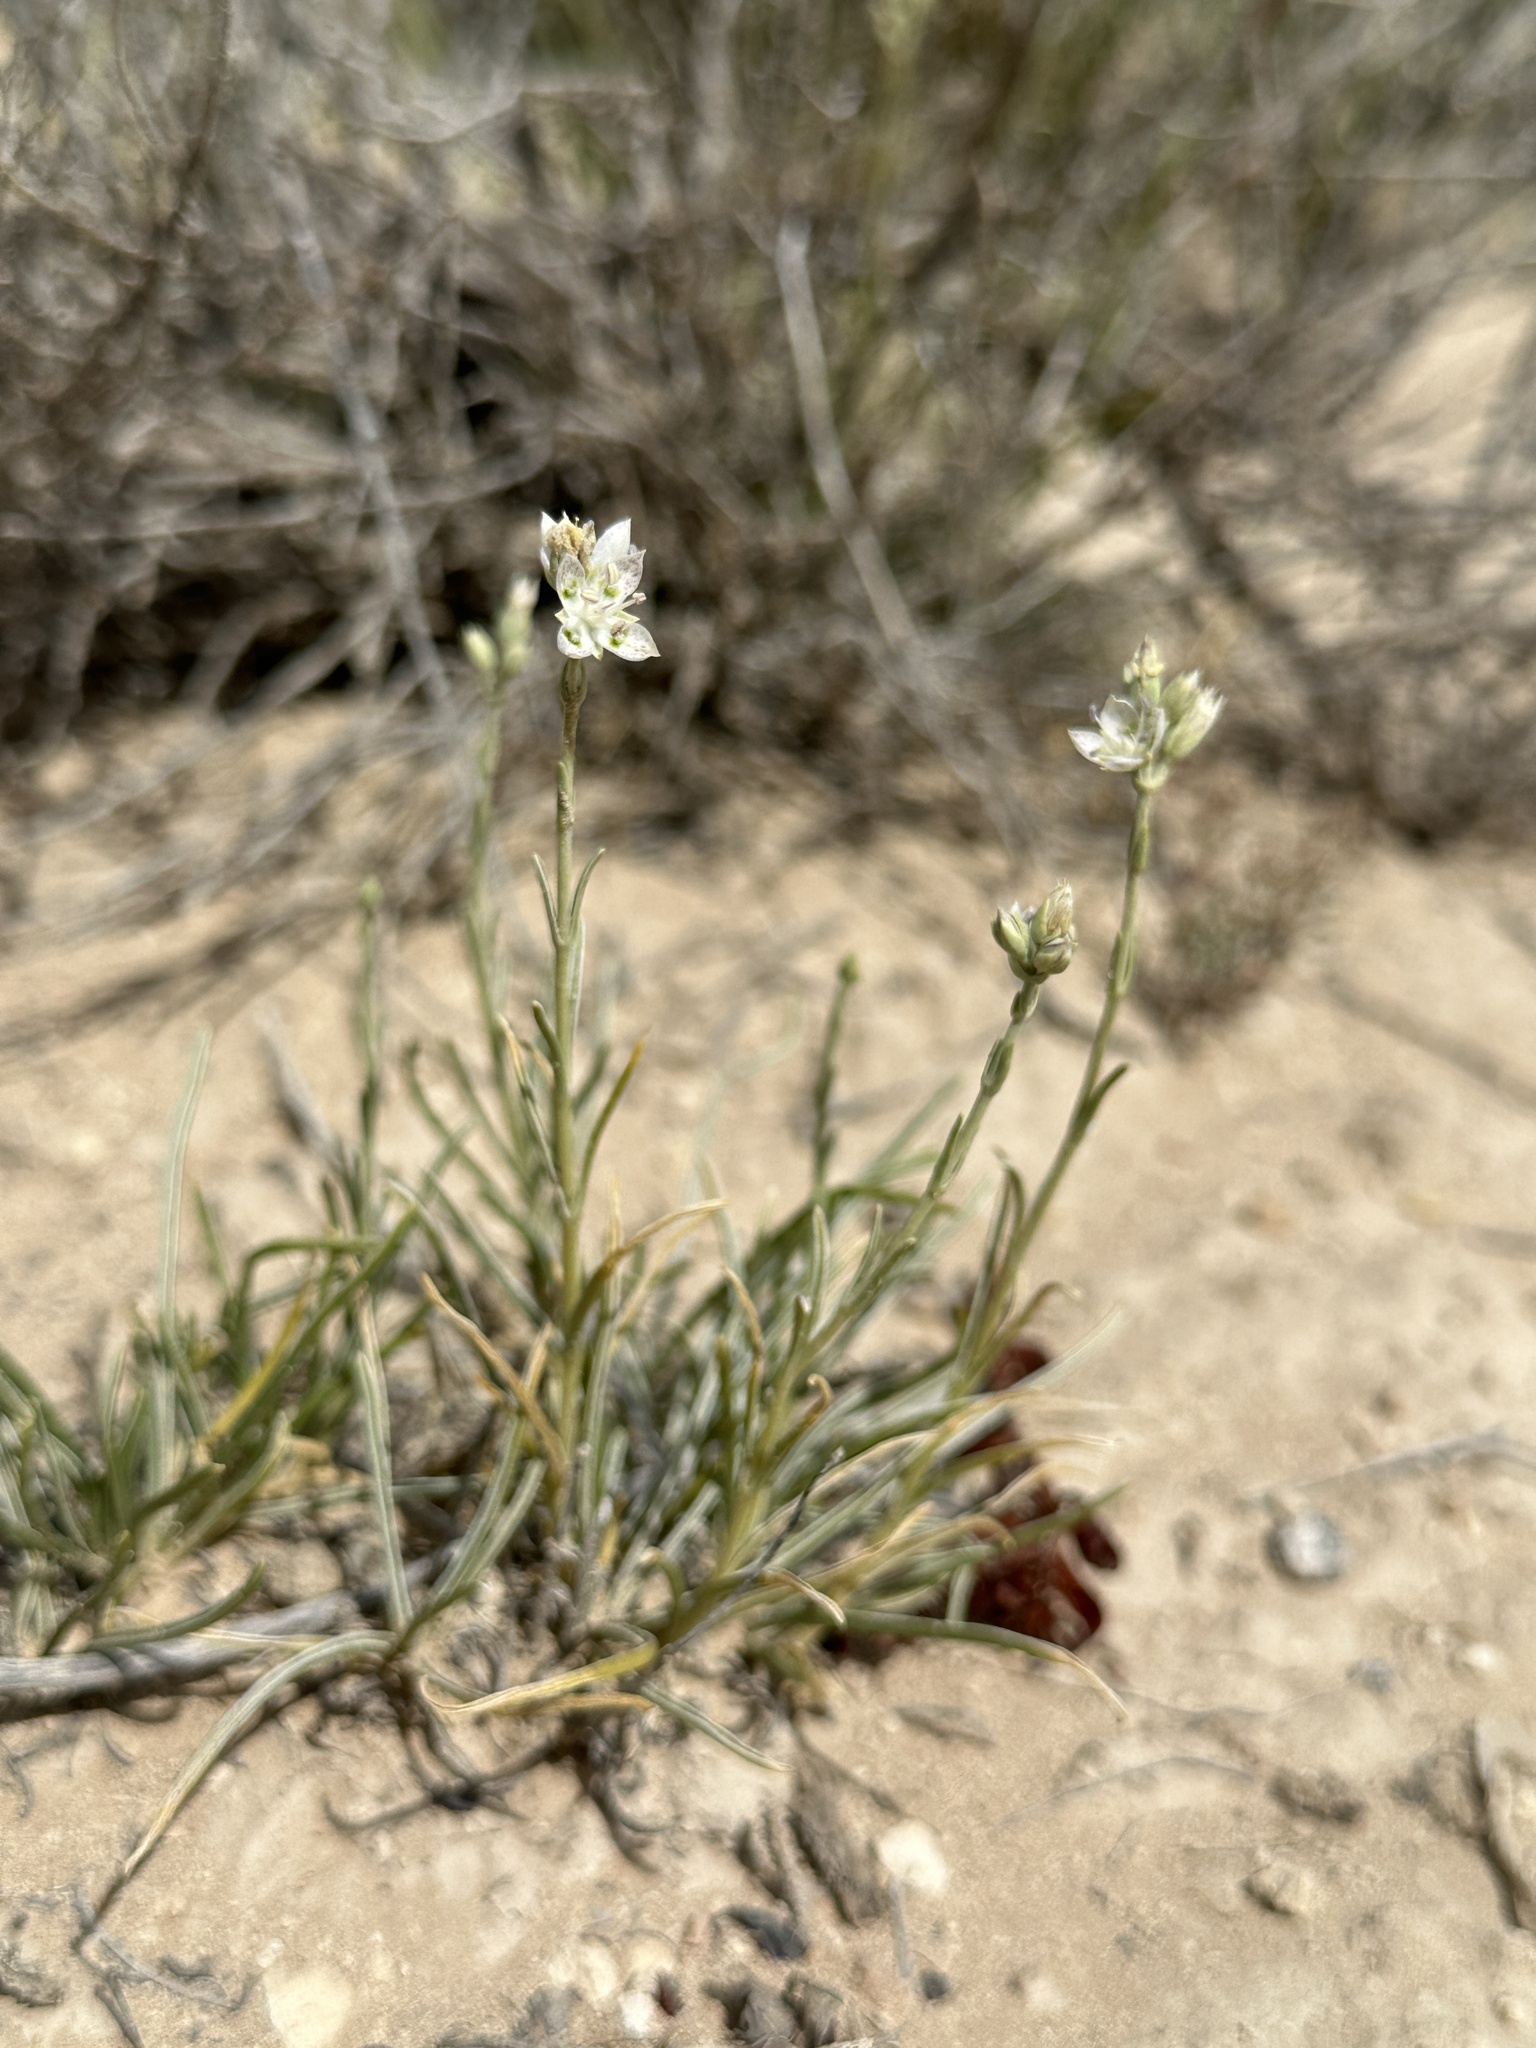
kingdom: Plantae
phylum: Tracheophyta
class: Magnoliopsida
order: Gentianales
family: Gentianaceae
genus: Frasera
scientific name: Frasera gypsicola
